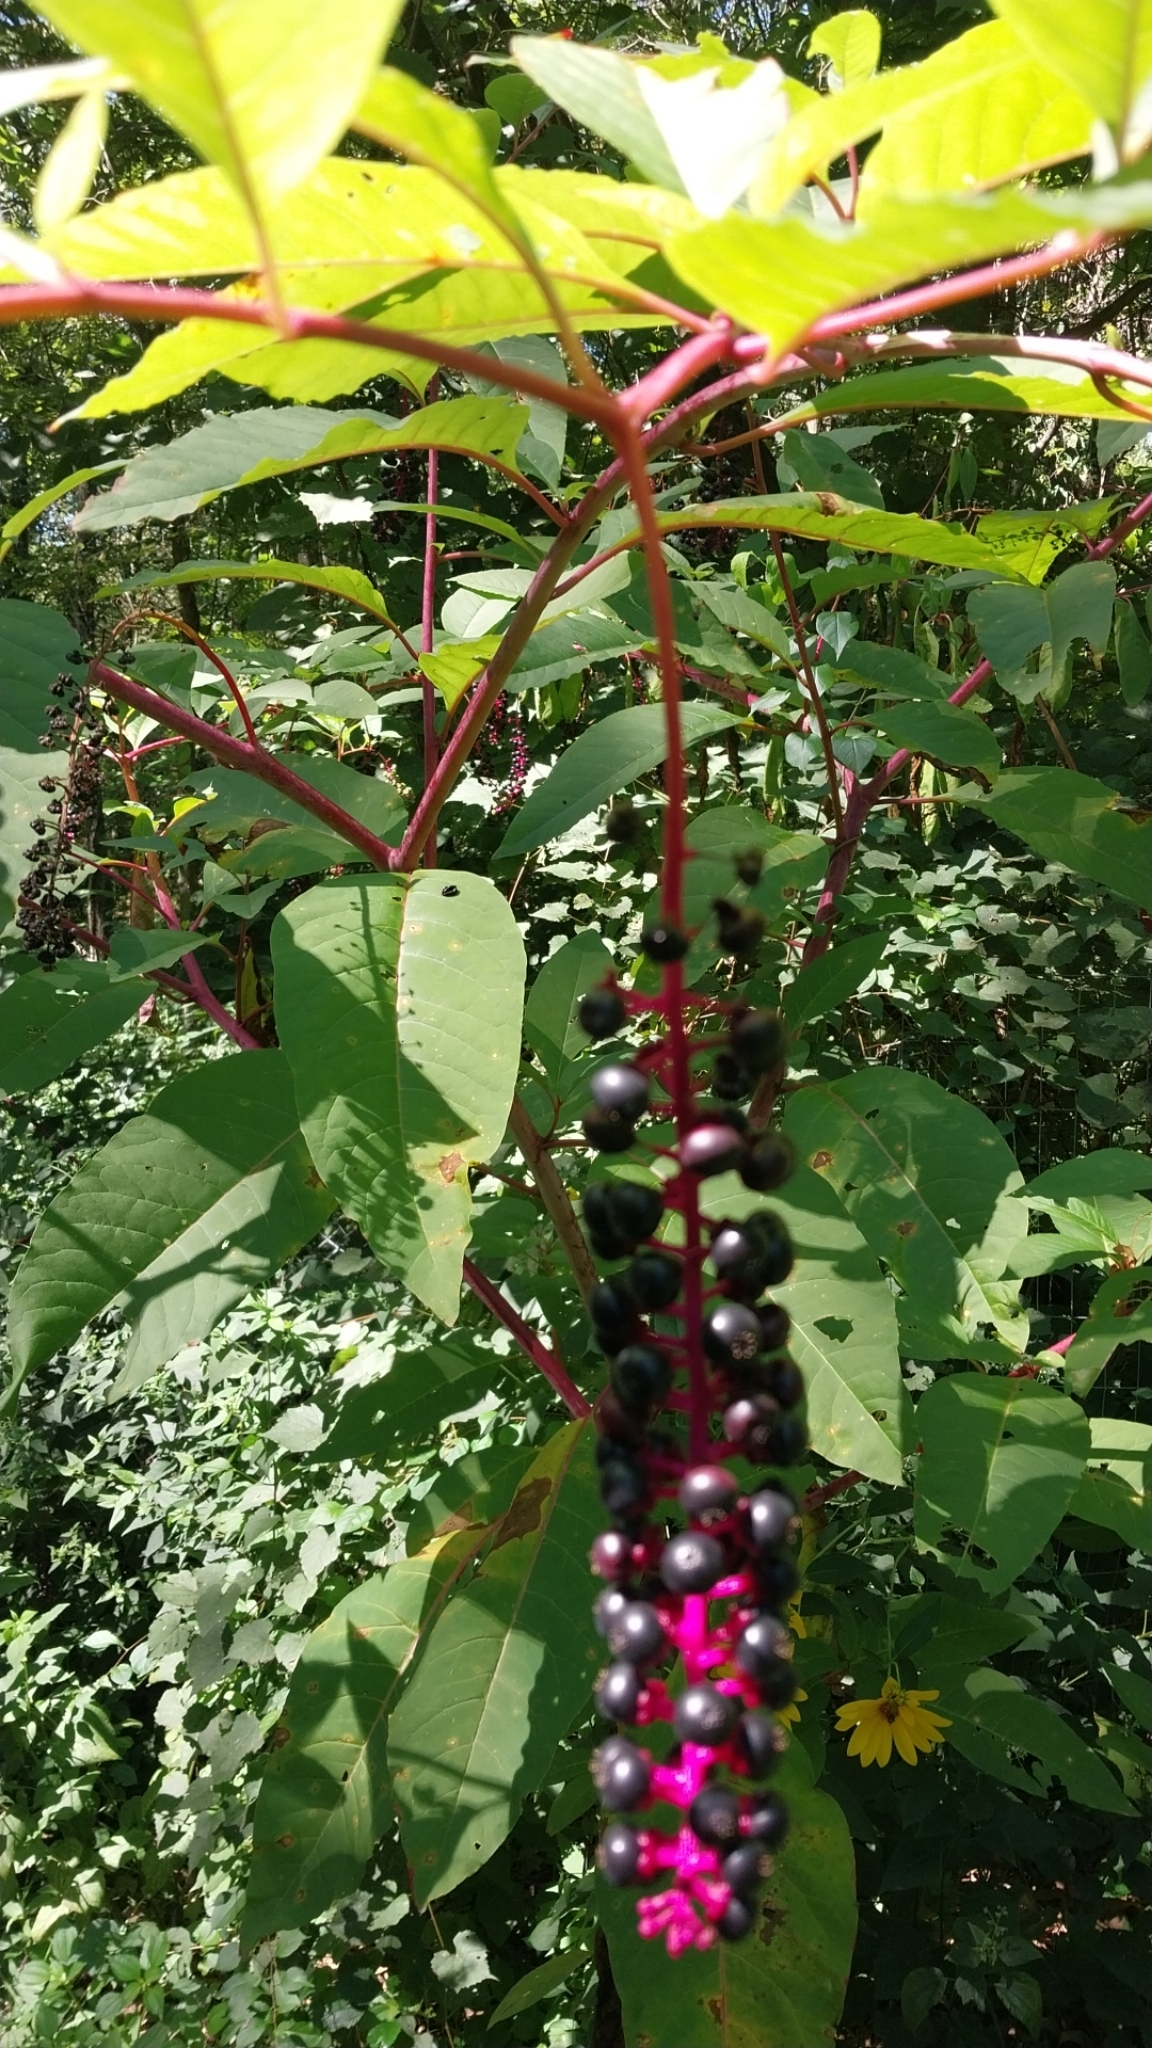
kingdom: Plantae
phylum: Tracheophyta
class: Magnoliopsida
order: Caryophyllales
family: Phytolaccaceae
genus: Phytolacca
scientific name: Phytolacca americana
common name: American pokeweed
